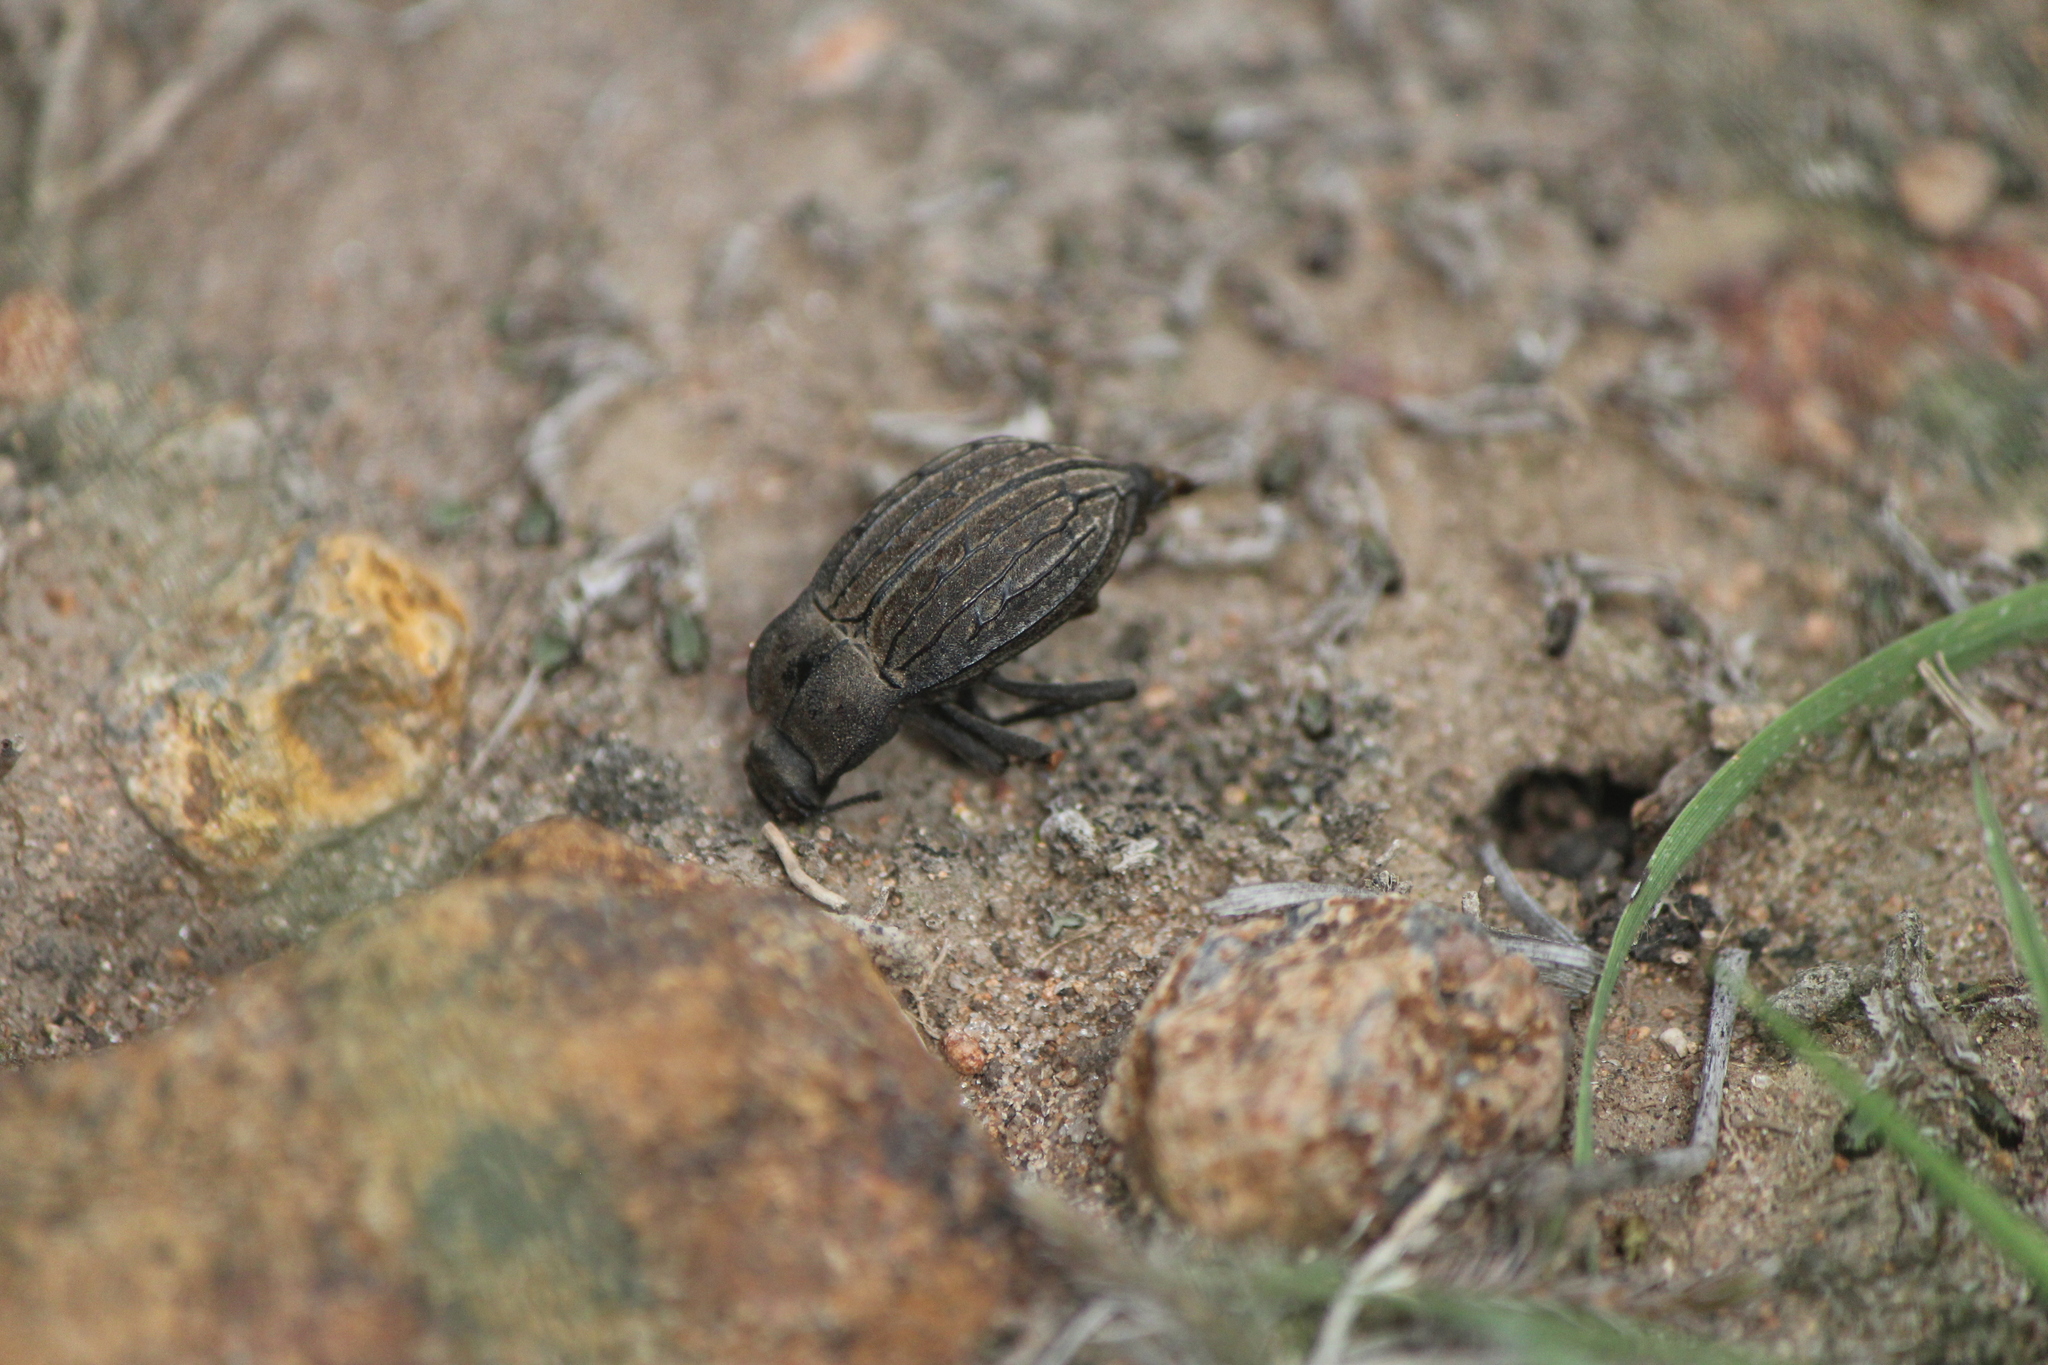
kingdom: Animalia
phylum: Arthropoda
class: Insecta
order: Coleoptera
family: Tenebrionidae
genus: Pelecyphorus
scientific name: Pelecyphorus fallax
